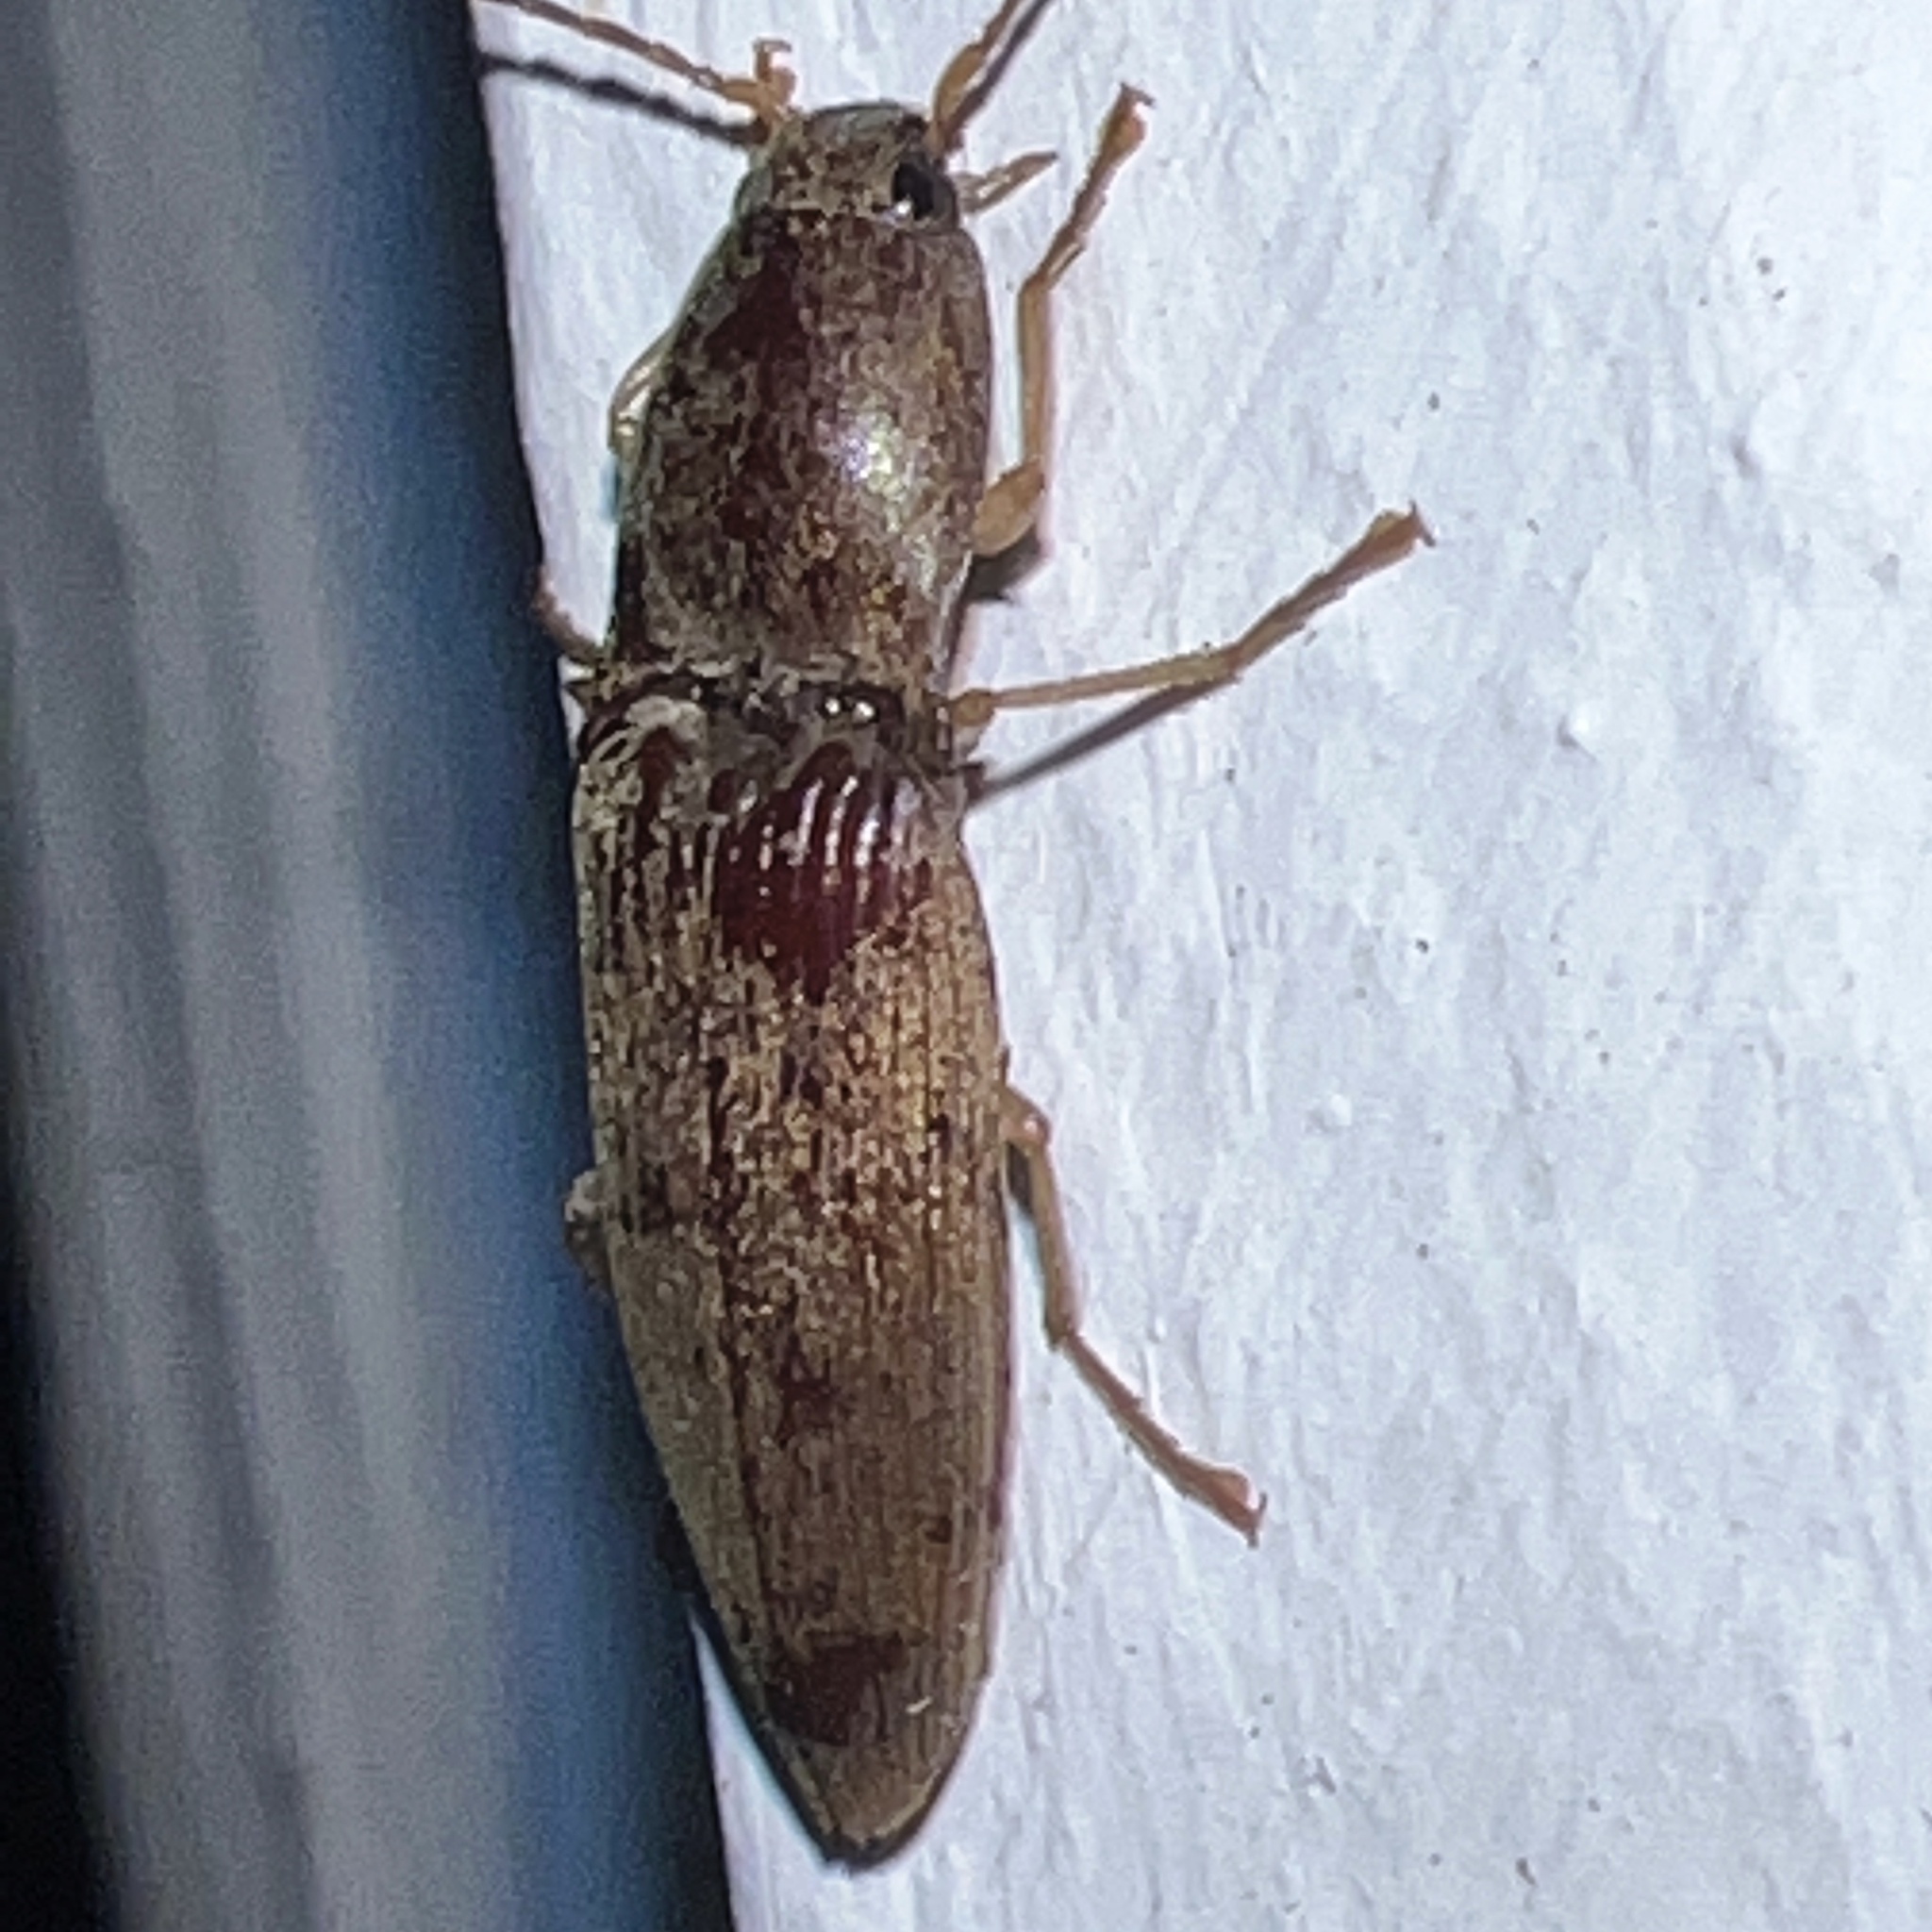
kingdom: Animalia
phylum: Arthropoda
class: Insecta
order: Coleoptera
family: Elateridae
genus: Monocrepidius
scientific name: Monocrepidius lividus
